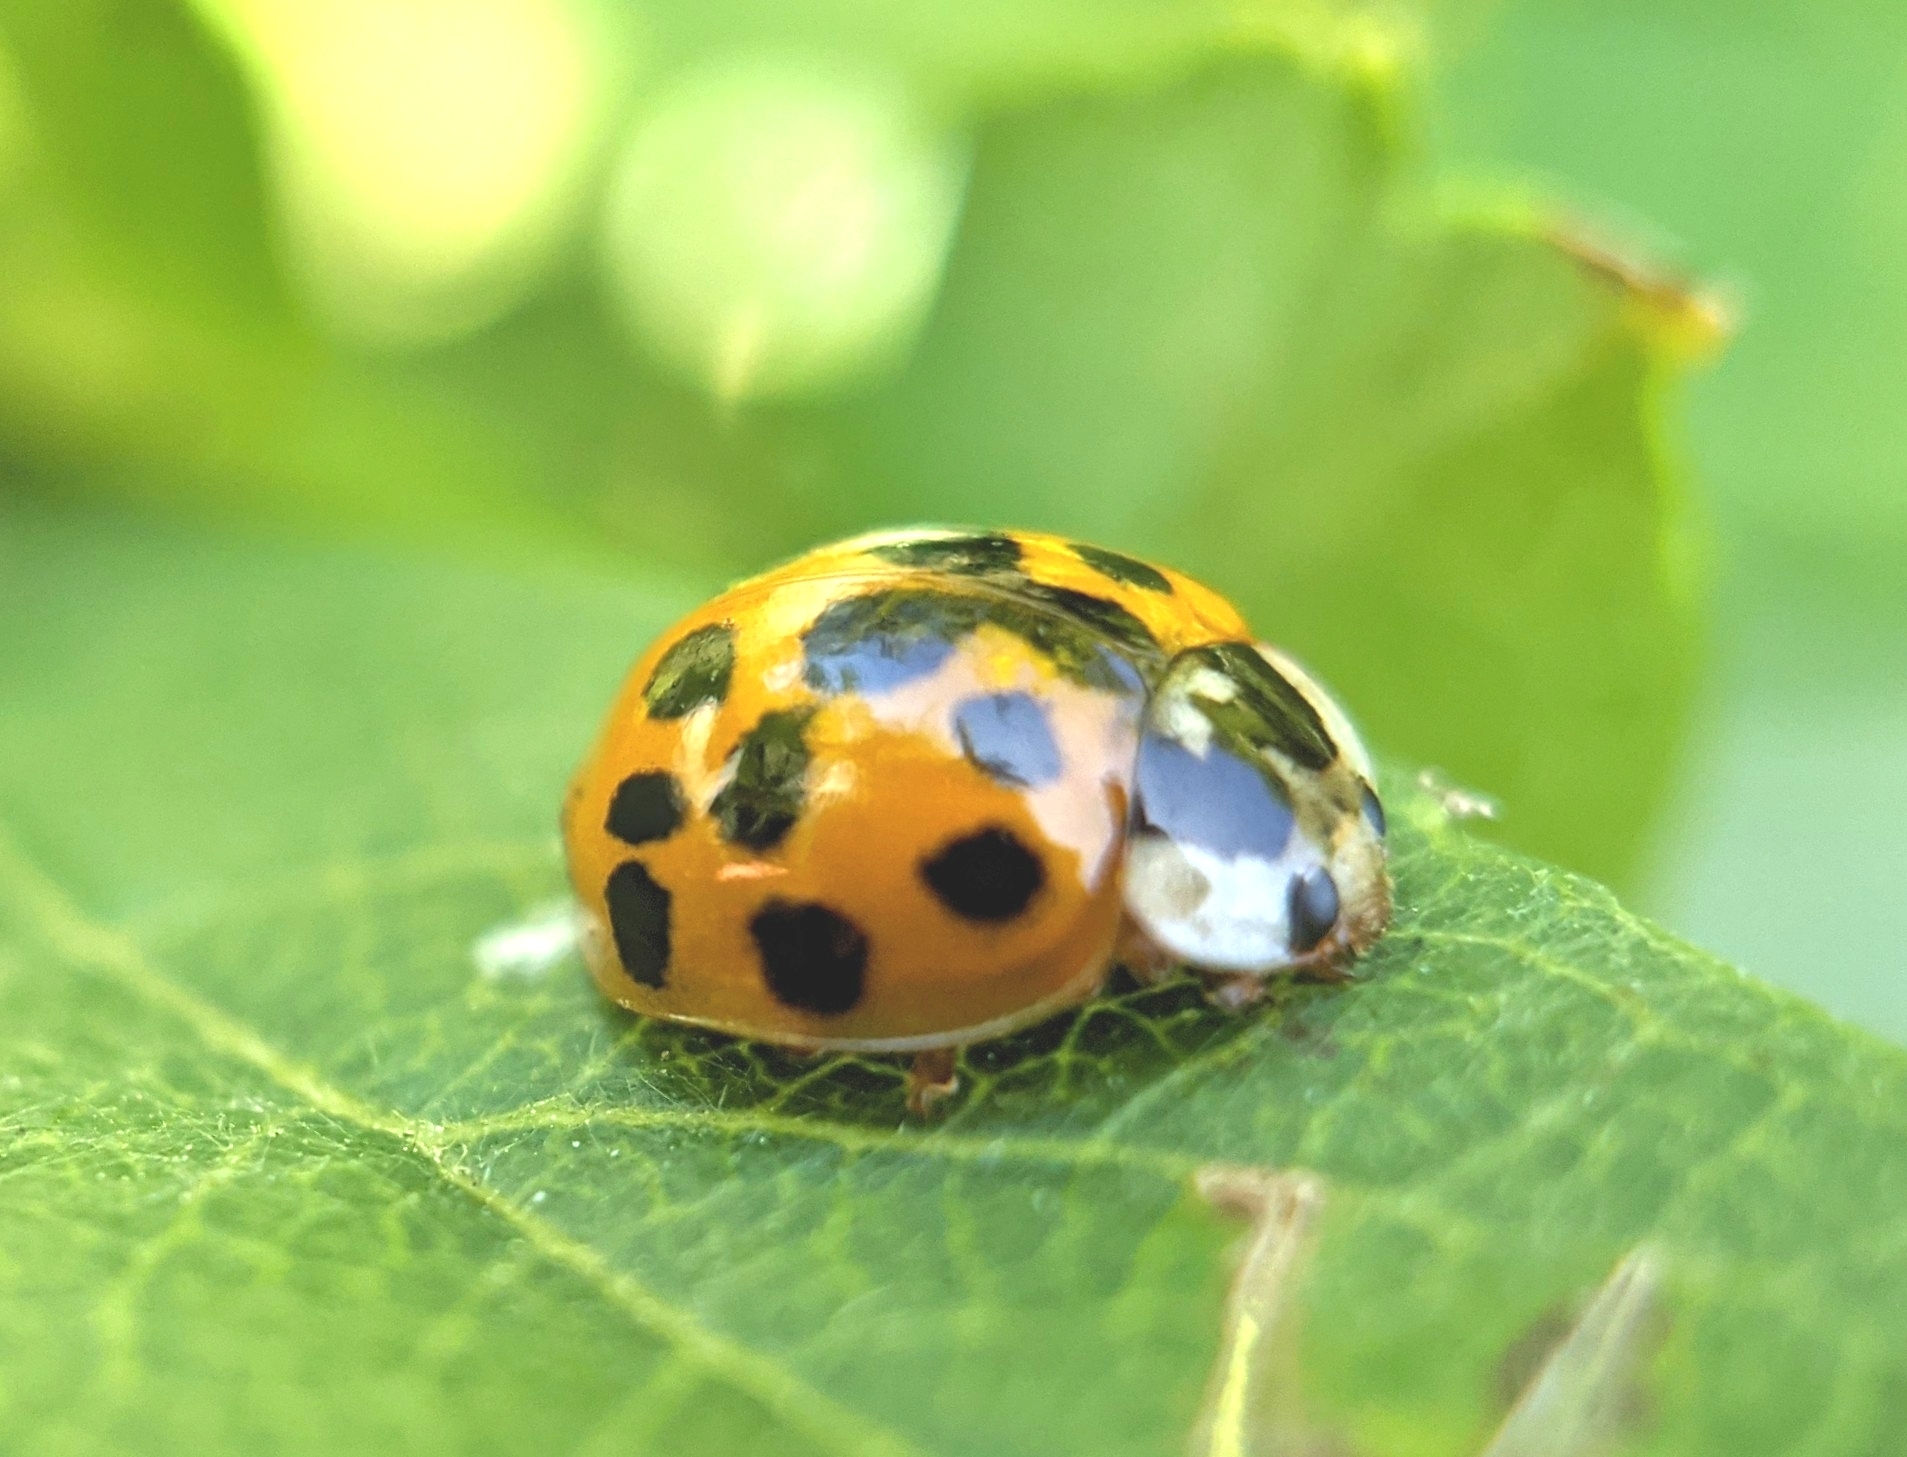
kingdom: Animalia
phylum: Arthropoda
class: Insecta
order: Coleoptera
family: Coccinellidae
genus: Harmonia
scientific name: Harmonia axyridis
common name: Harlequin ladybird
